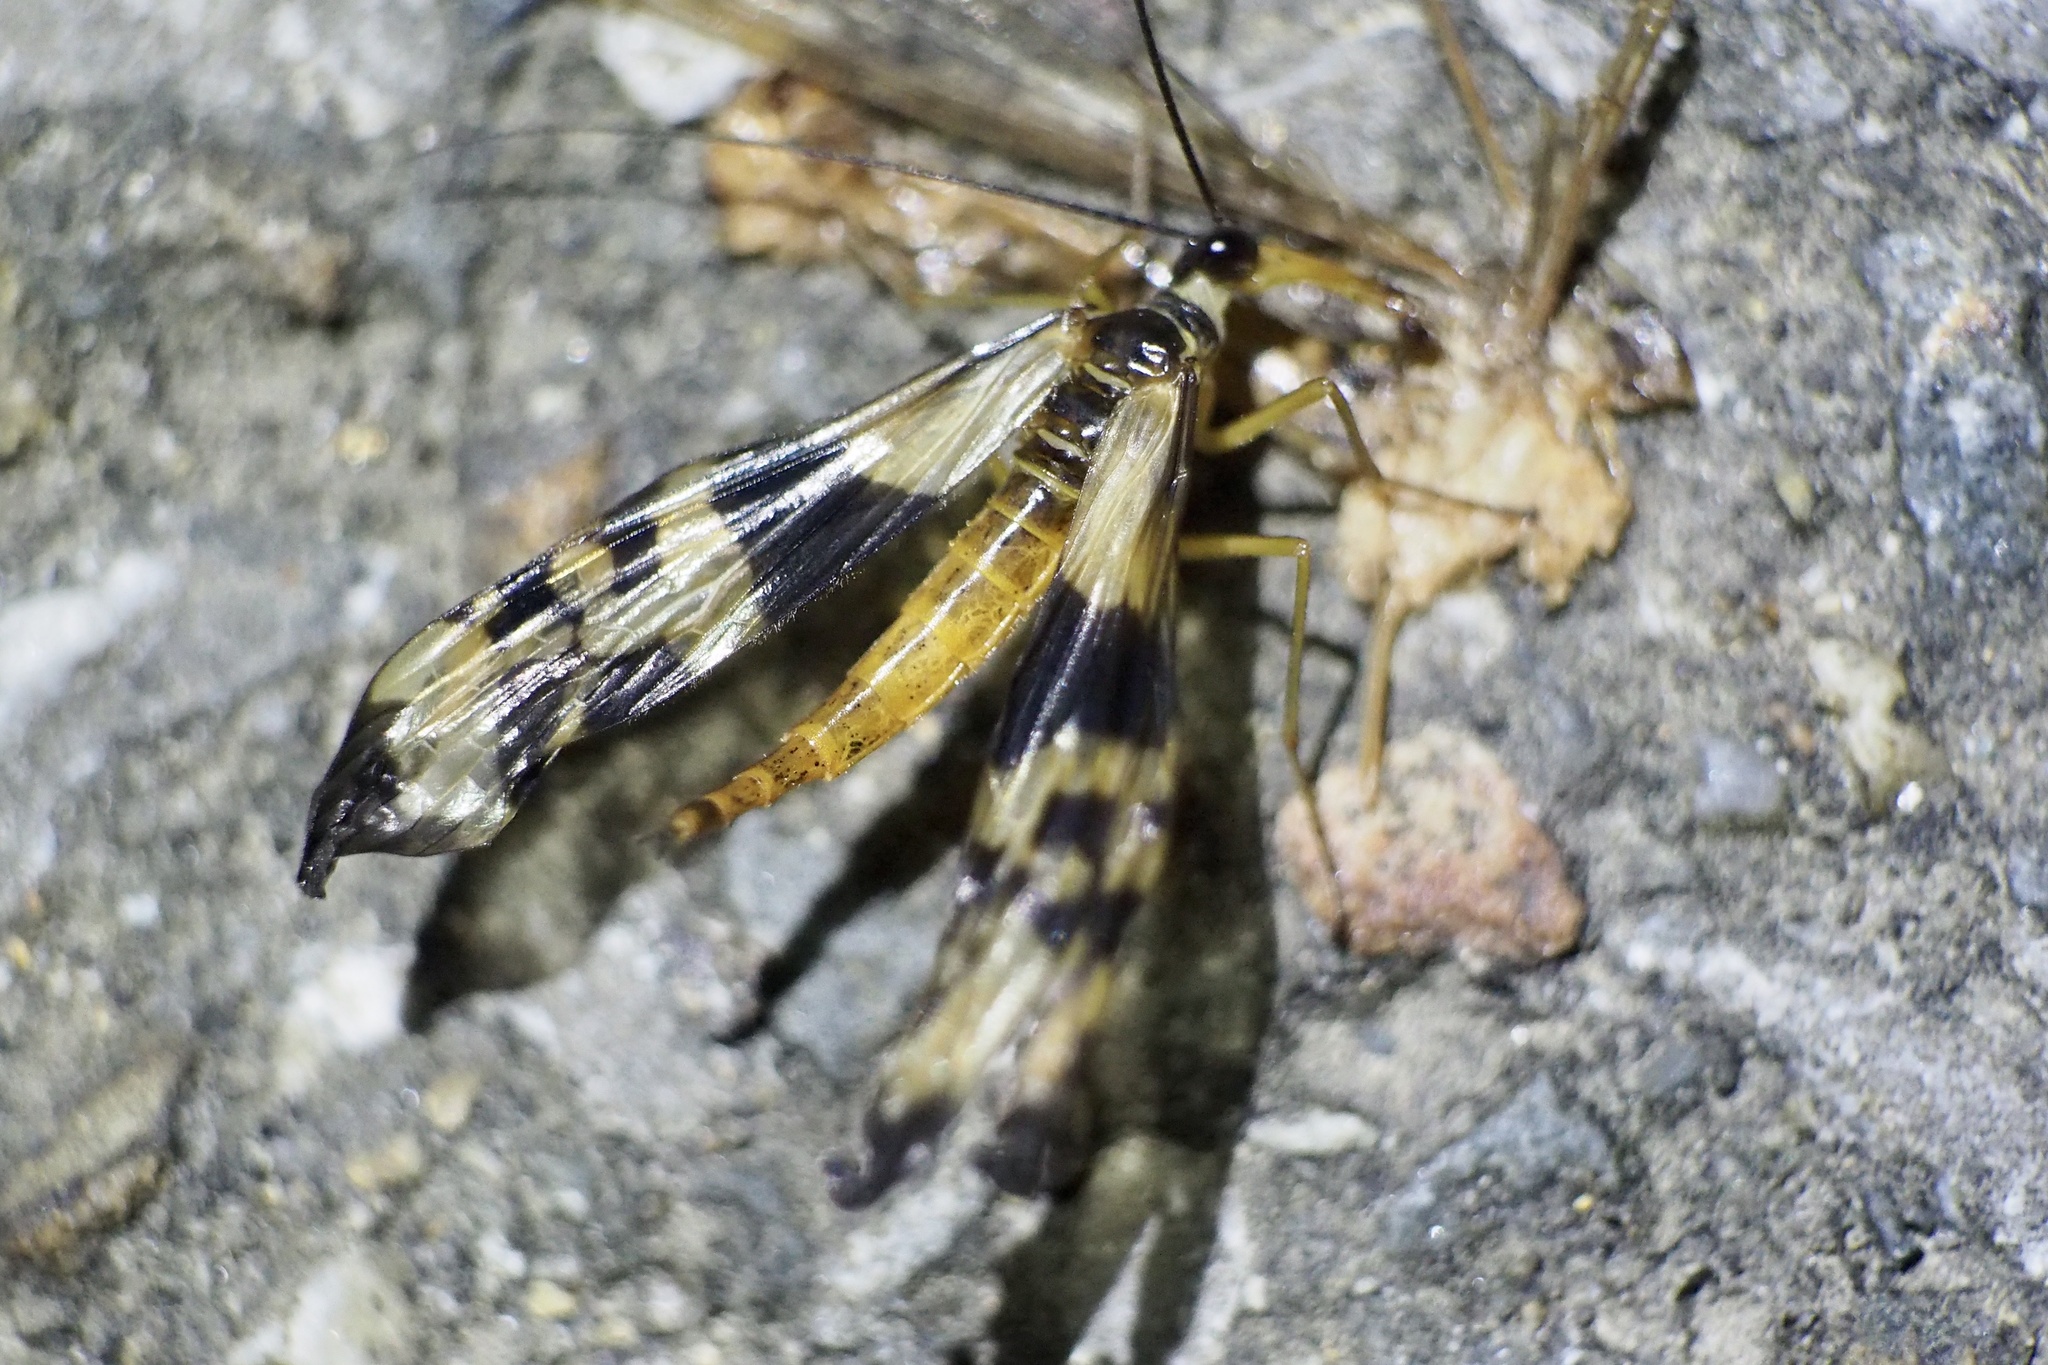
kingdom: Animalia
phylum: Arthropoda
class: Insecta
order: Mecoptera
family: Panorpidae
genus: Panorpa
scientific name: Panorpa trizonata
